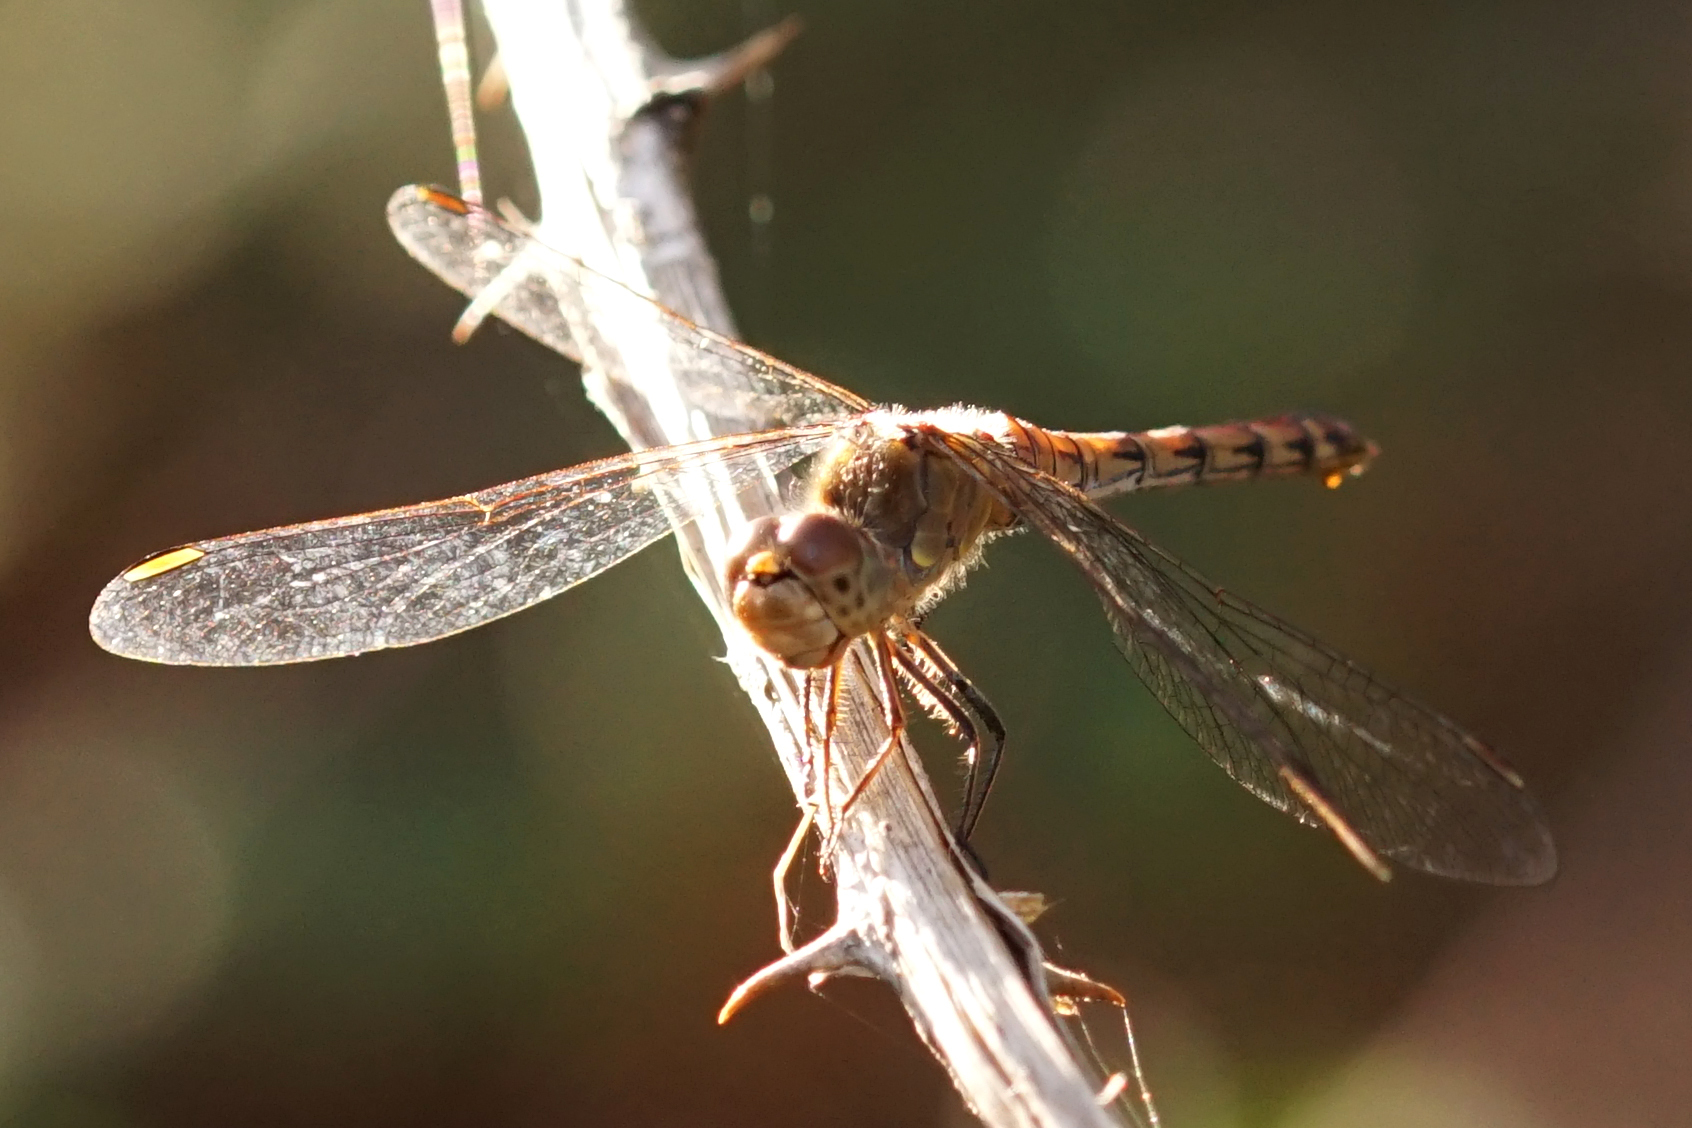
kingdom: Animalia
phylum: Arthropoda
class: Insecta
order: Odonata
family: Libellulidae
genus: Sympetrum
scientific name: Sympetrum striolatum
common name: Common darter
